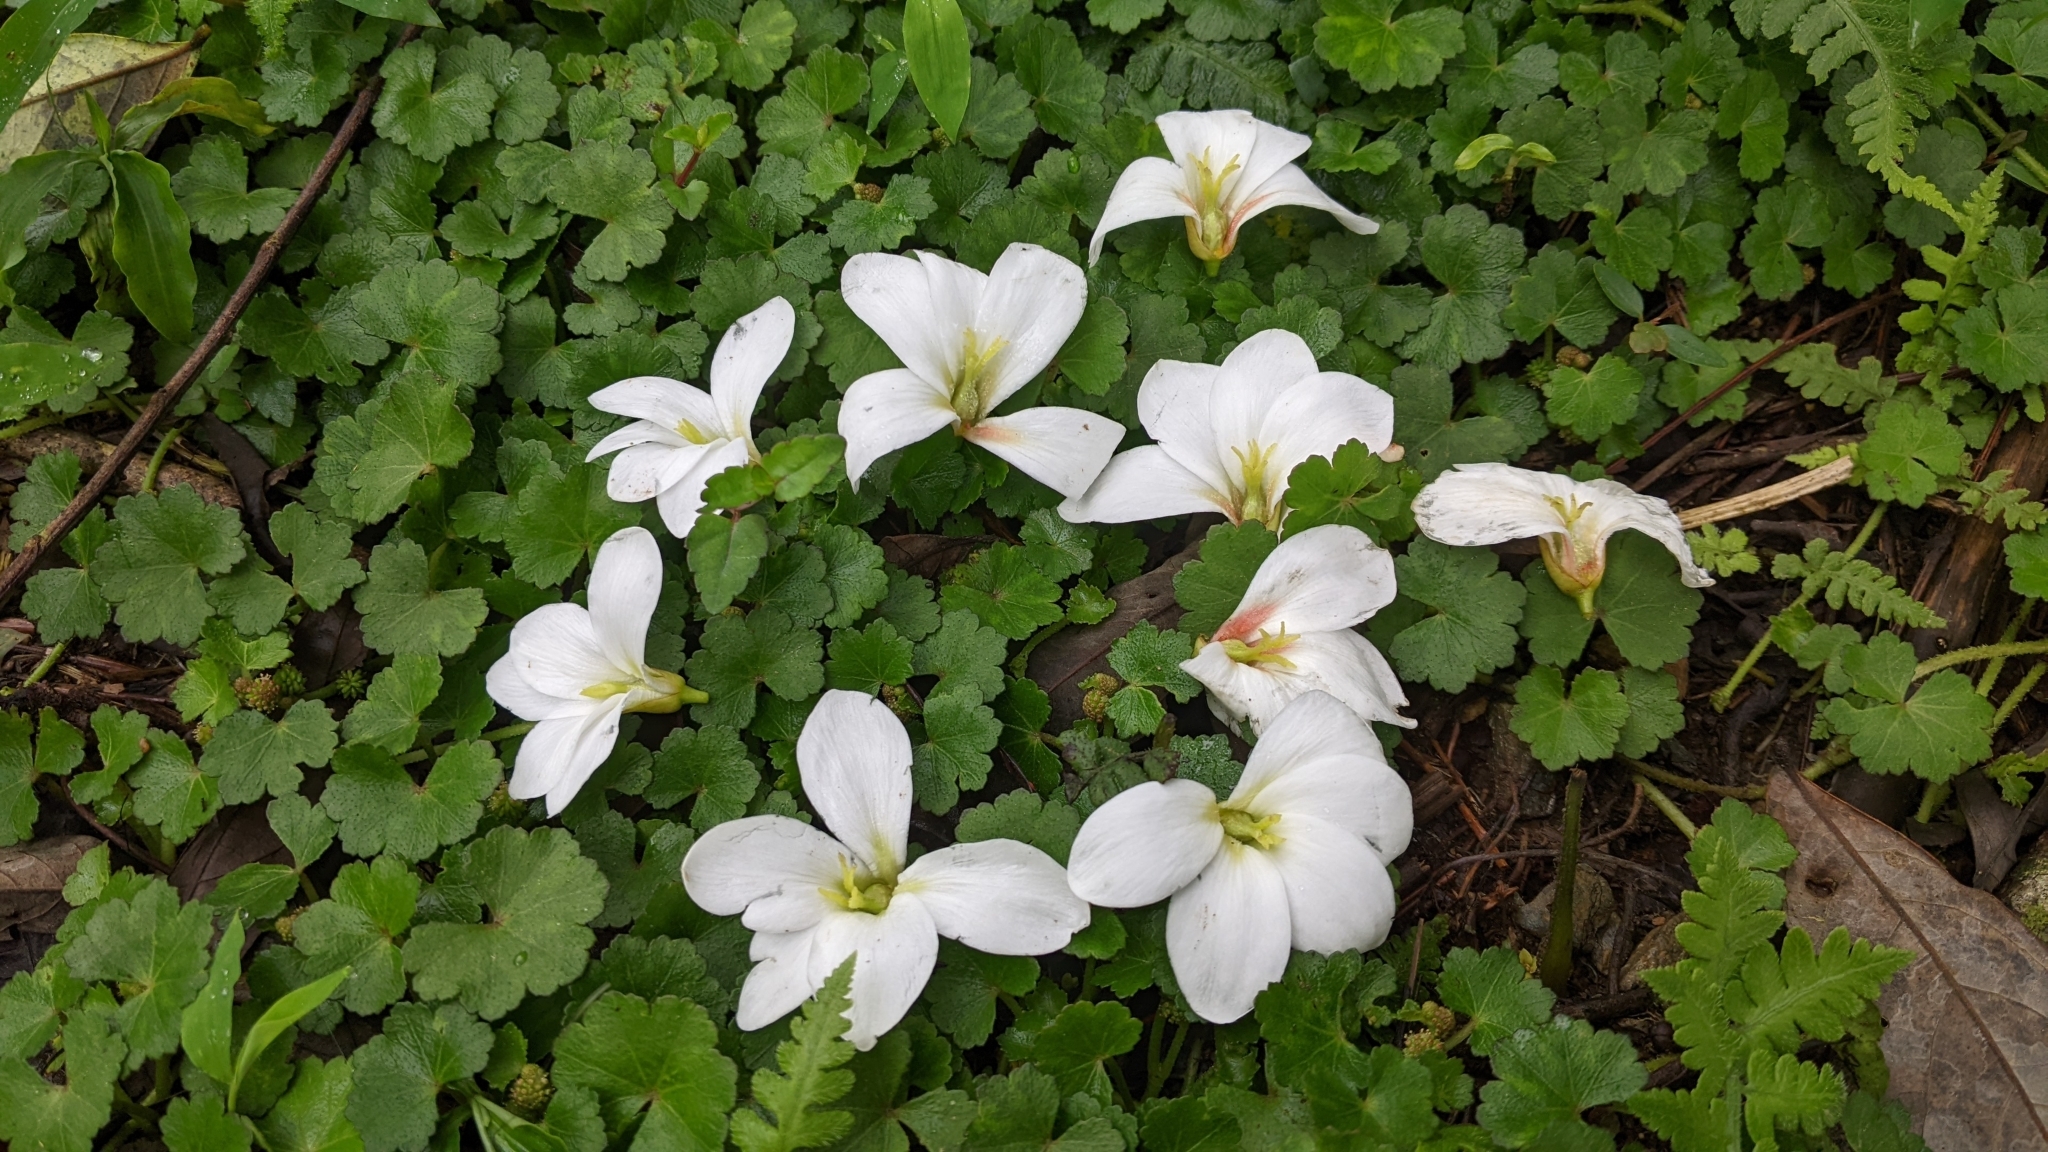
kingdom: Plantae
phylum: Tracheophyta
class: Magnoliopsida
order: Malpighiales
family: Euphorbiaceae
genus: Vernicia
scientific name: Vernicia montana
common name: Mu oil tree
